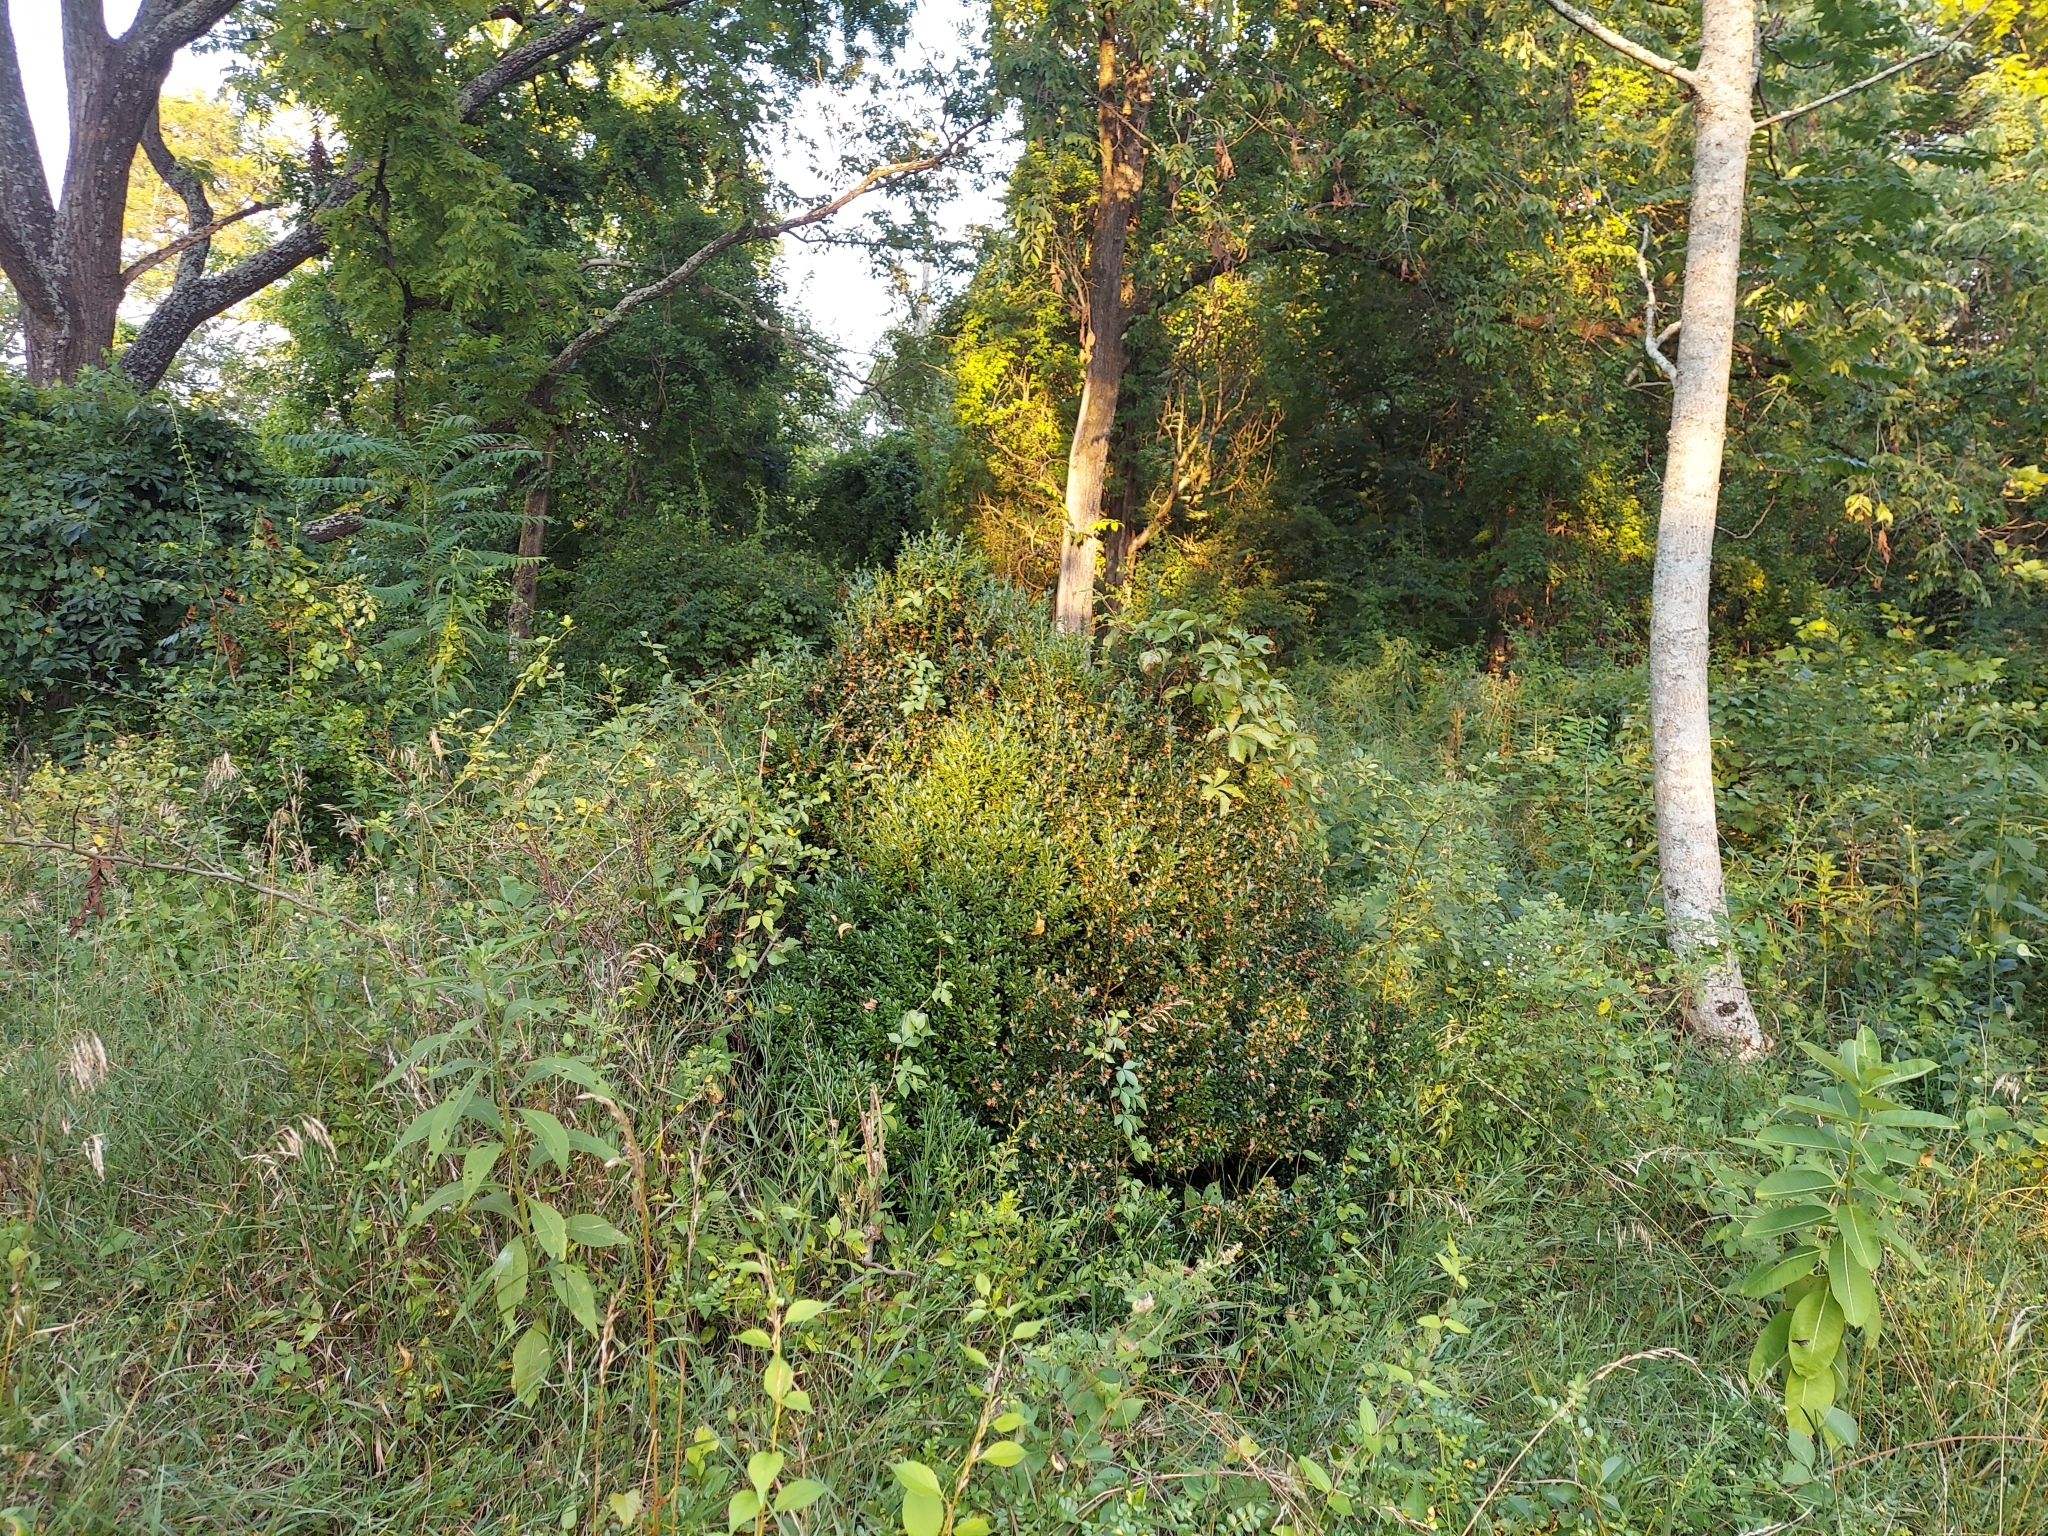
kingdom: Plantae
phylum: Tracheophyta
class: Magnoliopsida
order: Buxales
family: Buxaceae
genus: Buxus
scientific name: Buxus sempervirens
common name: Box
